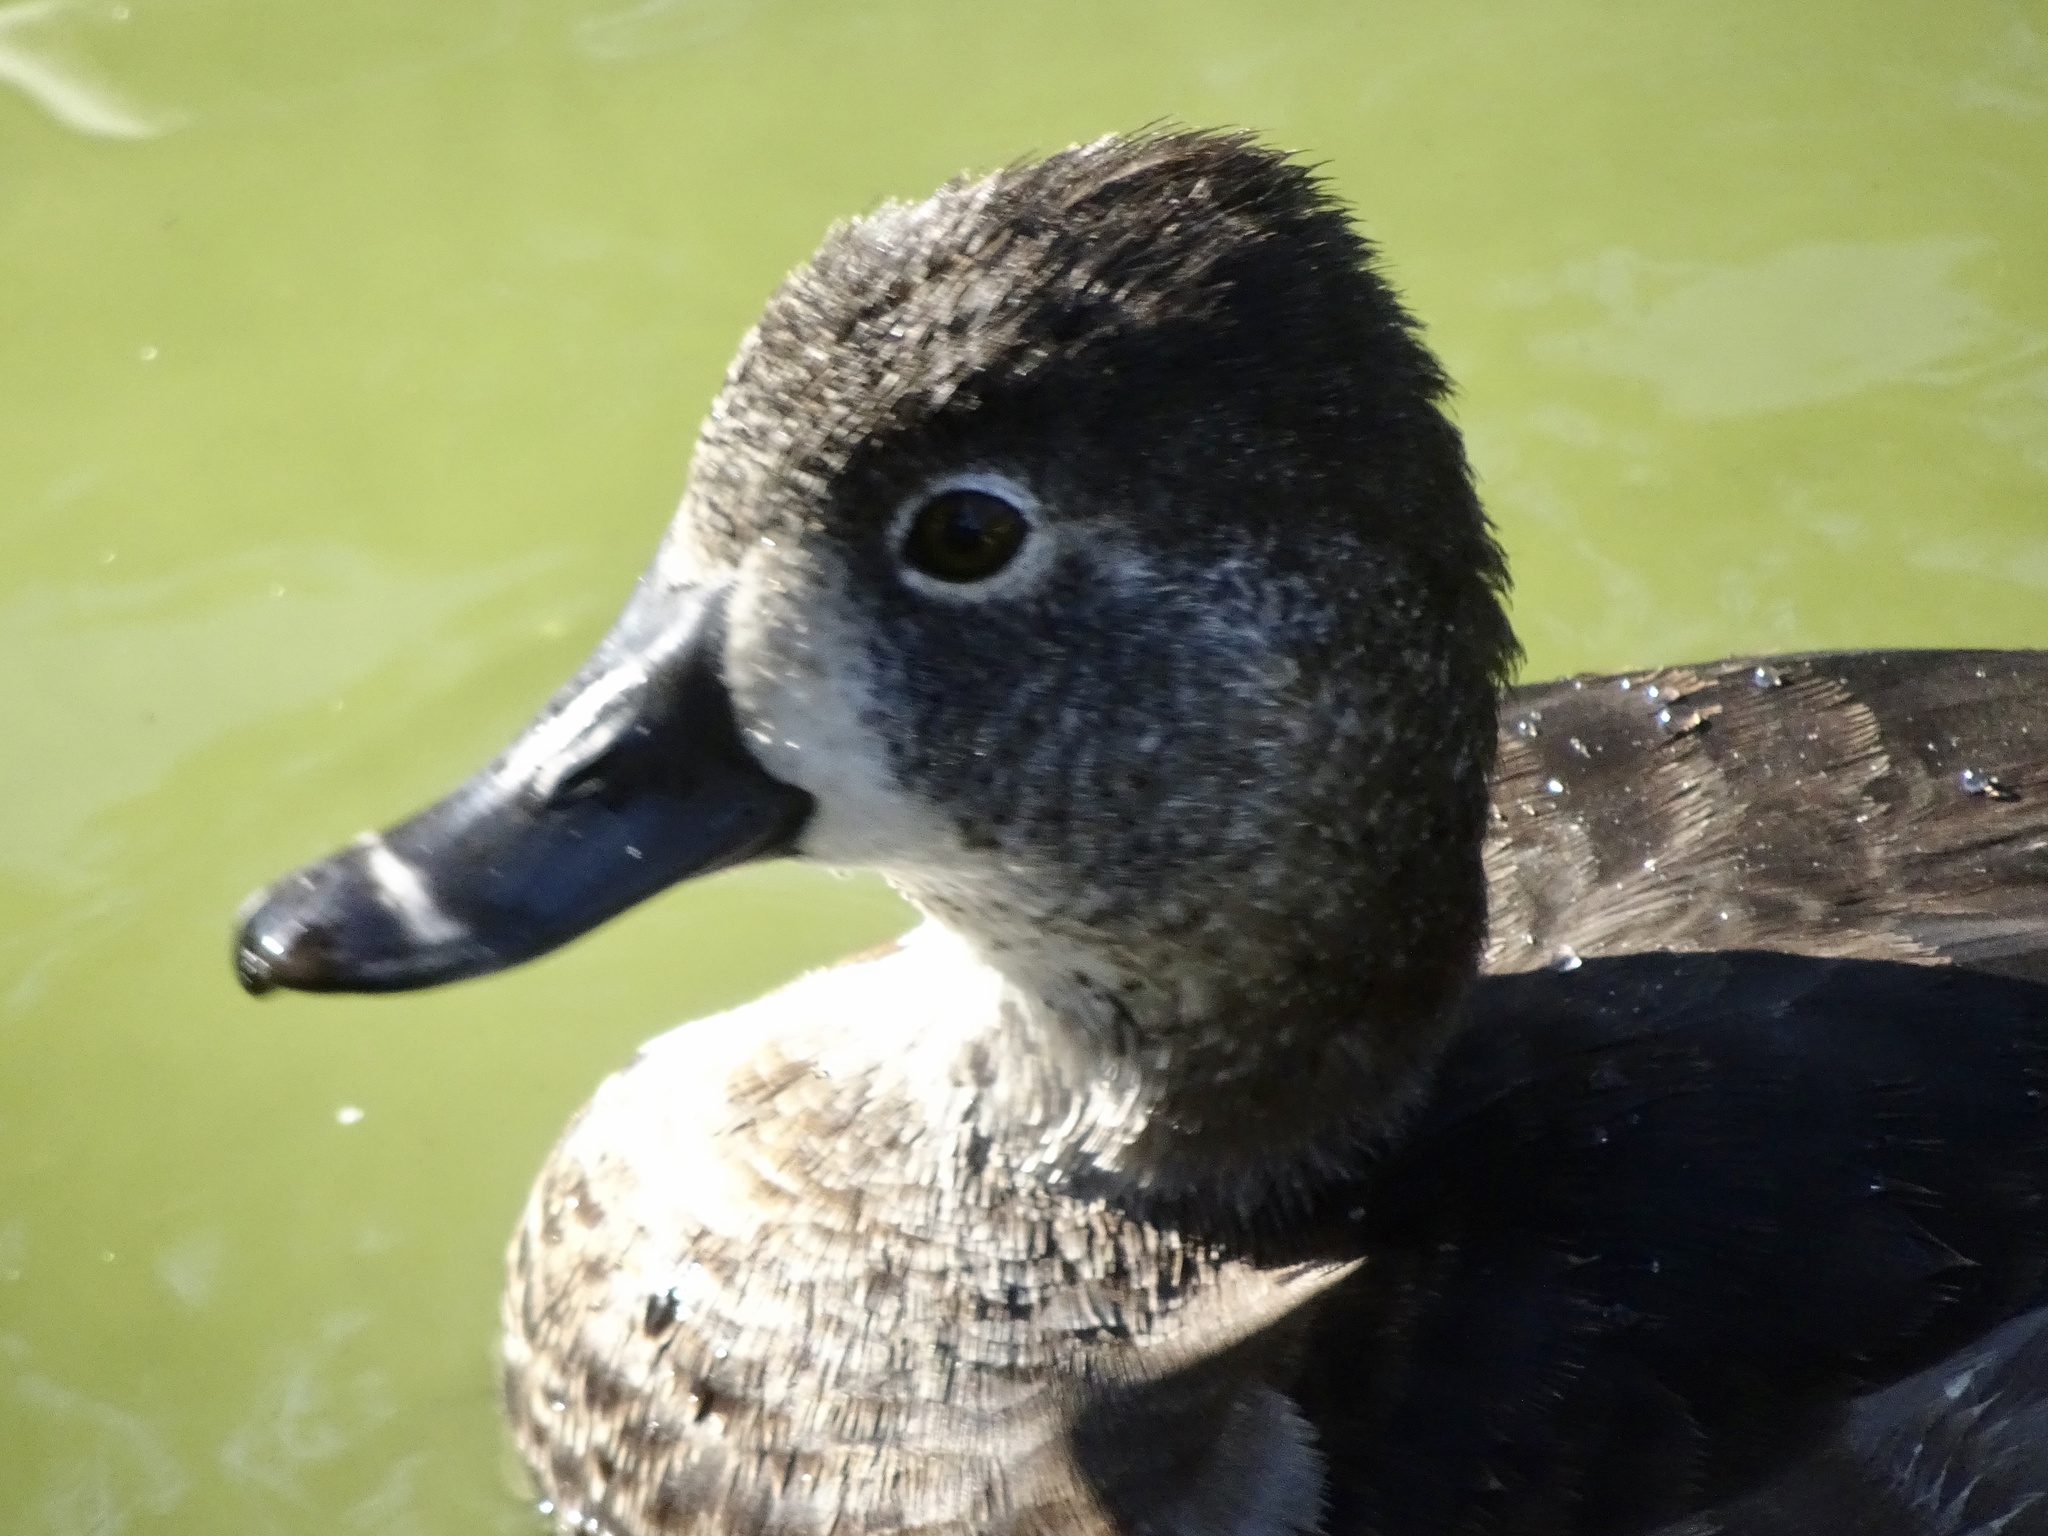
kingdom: Animalia
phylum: Chordata
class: Aves
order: Anseriformes
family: Anatidae
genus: Aythya
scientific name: Aythya collaris
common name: Ring-necked duck
